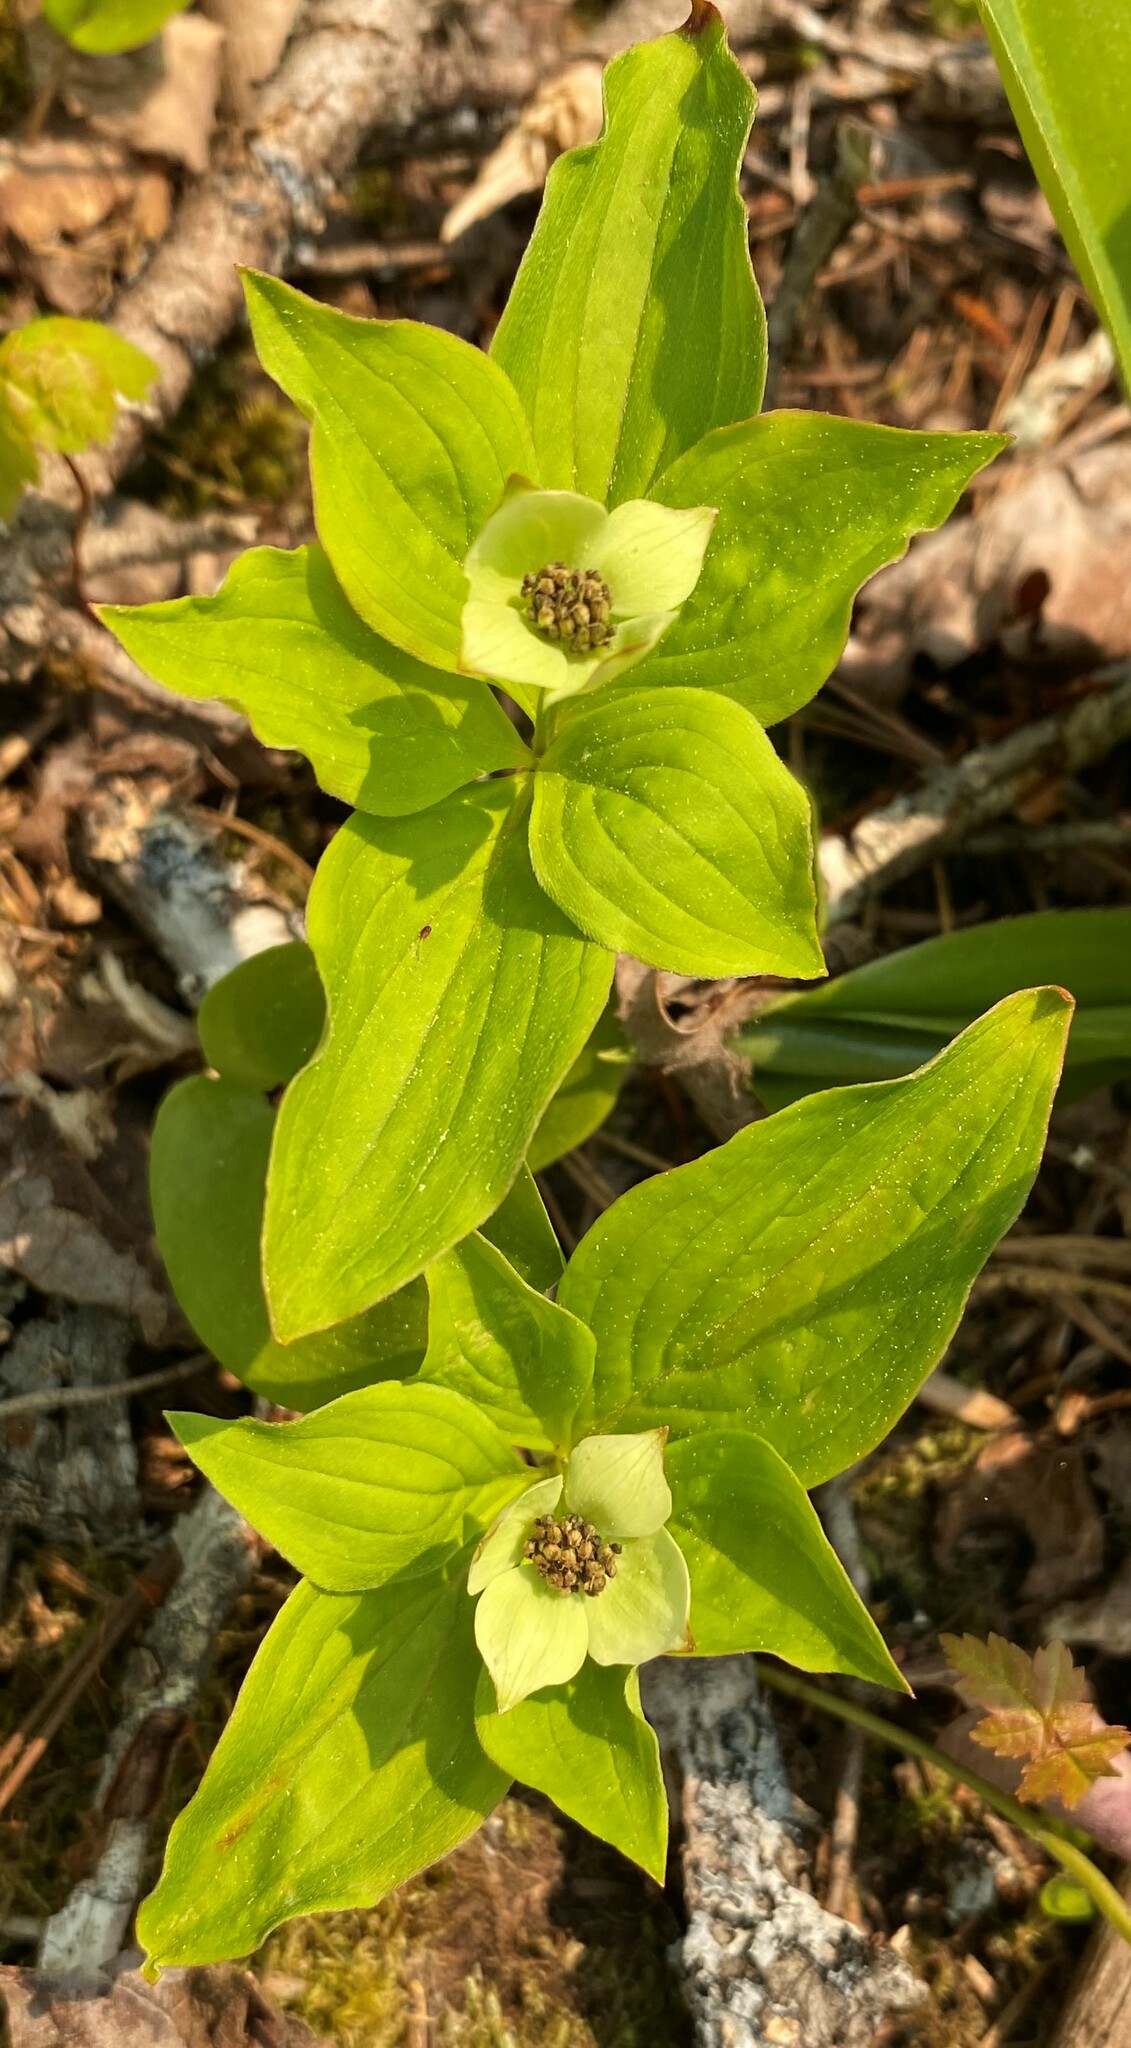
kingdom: Plantae
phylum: Tracheophyta
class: Magnoliopsida
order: Cornales
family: Cornaceae
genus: Cornus
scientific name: Cornus canadensis
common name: Creeping dogwood
